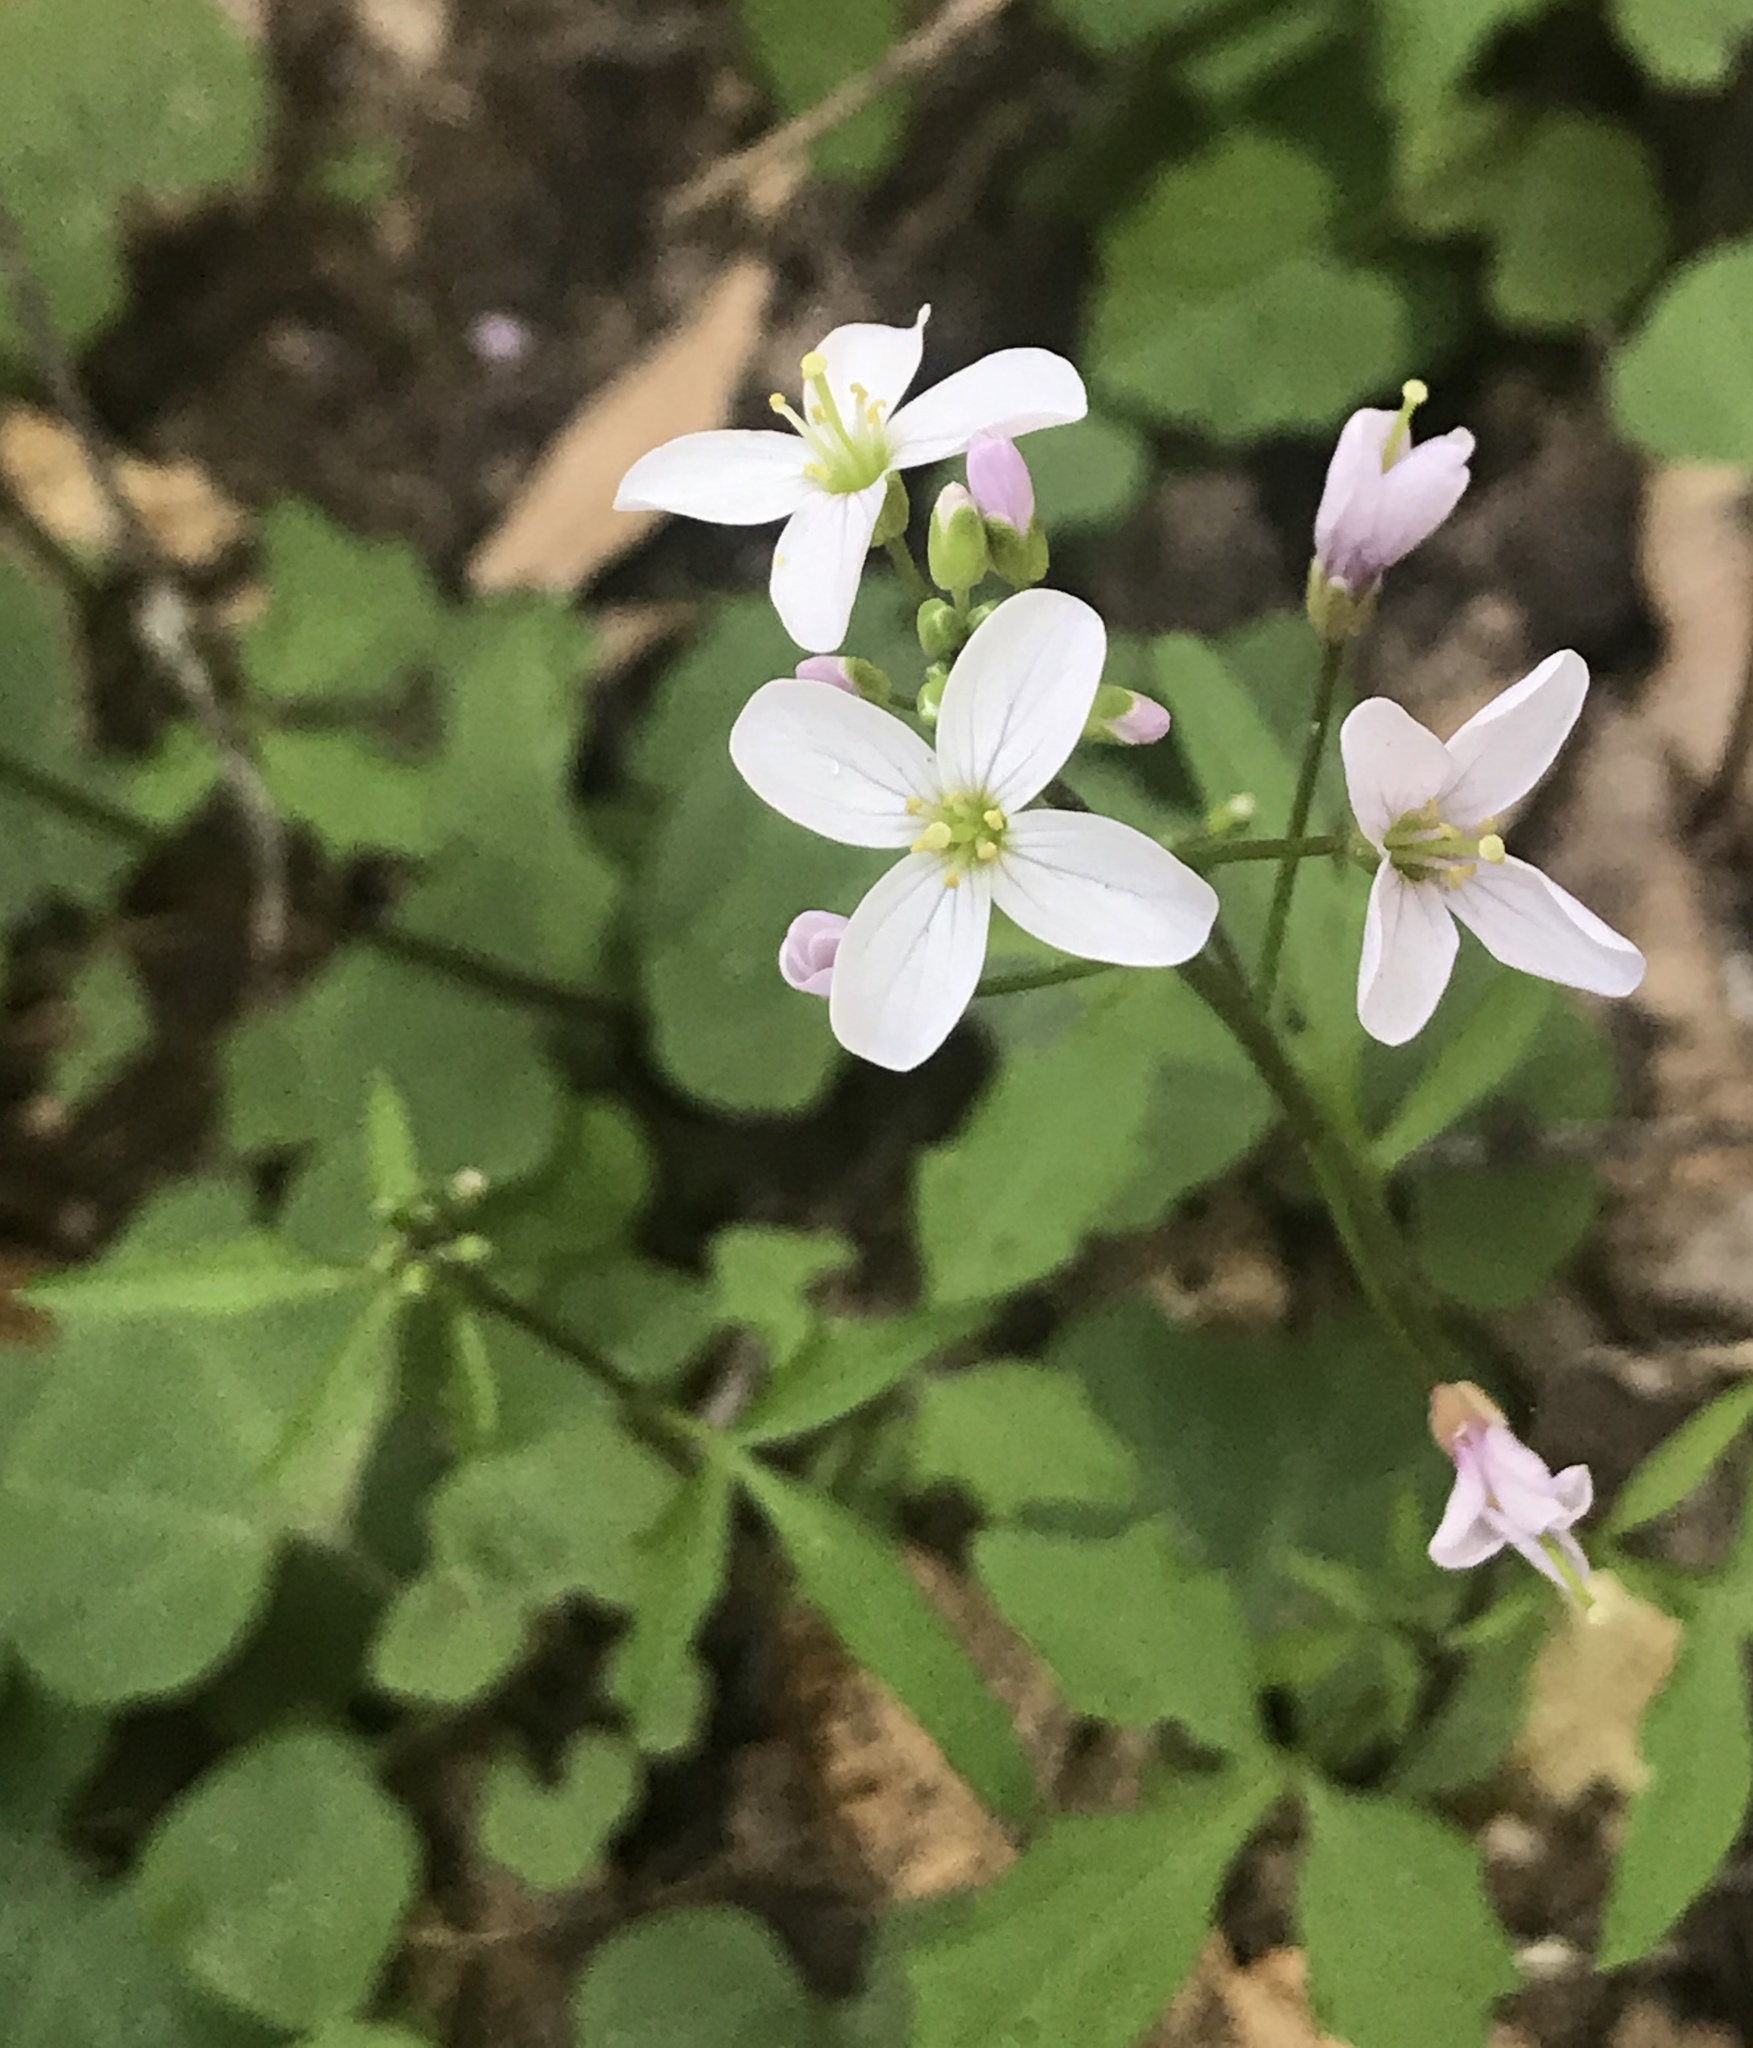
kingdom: Plantae
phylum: Tracheophyta
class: Magnoliopsida
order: Brassicales
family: Brassicaceae
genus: Cardamine
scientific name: Cardamine californica
